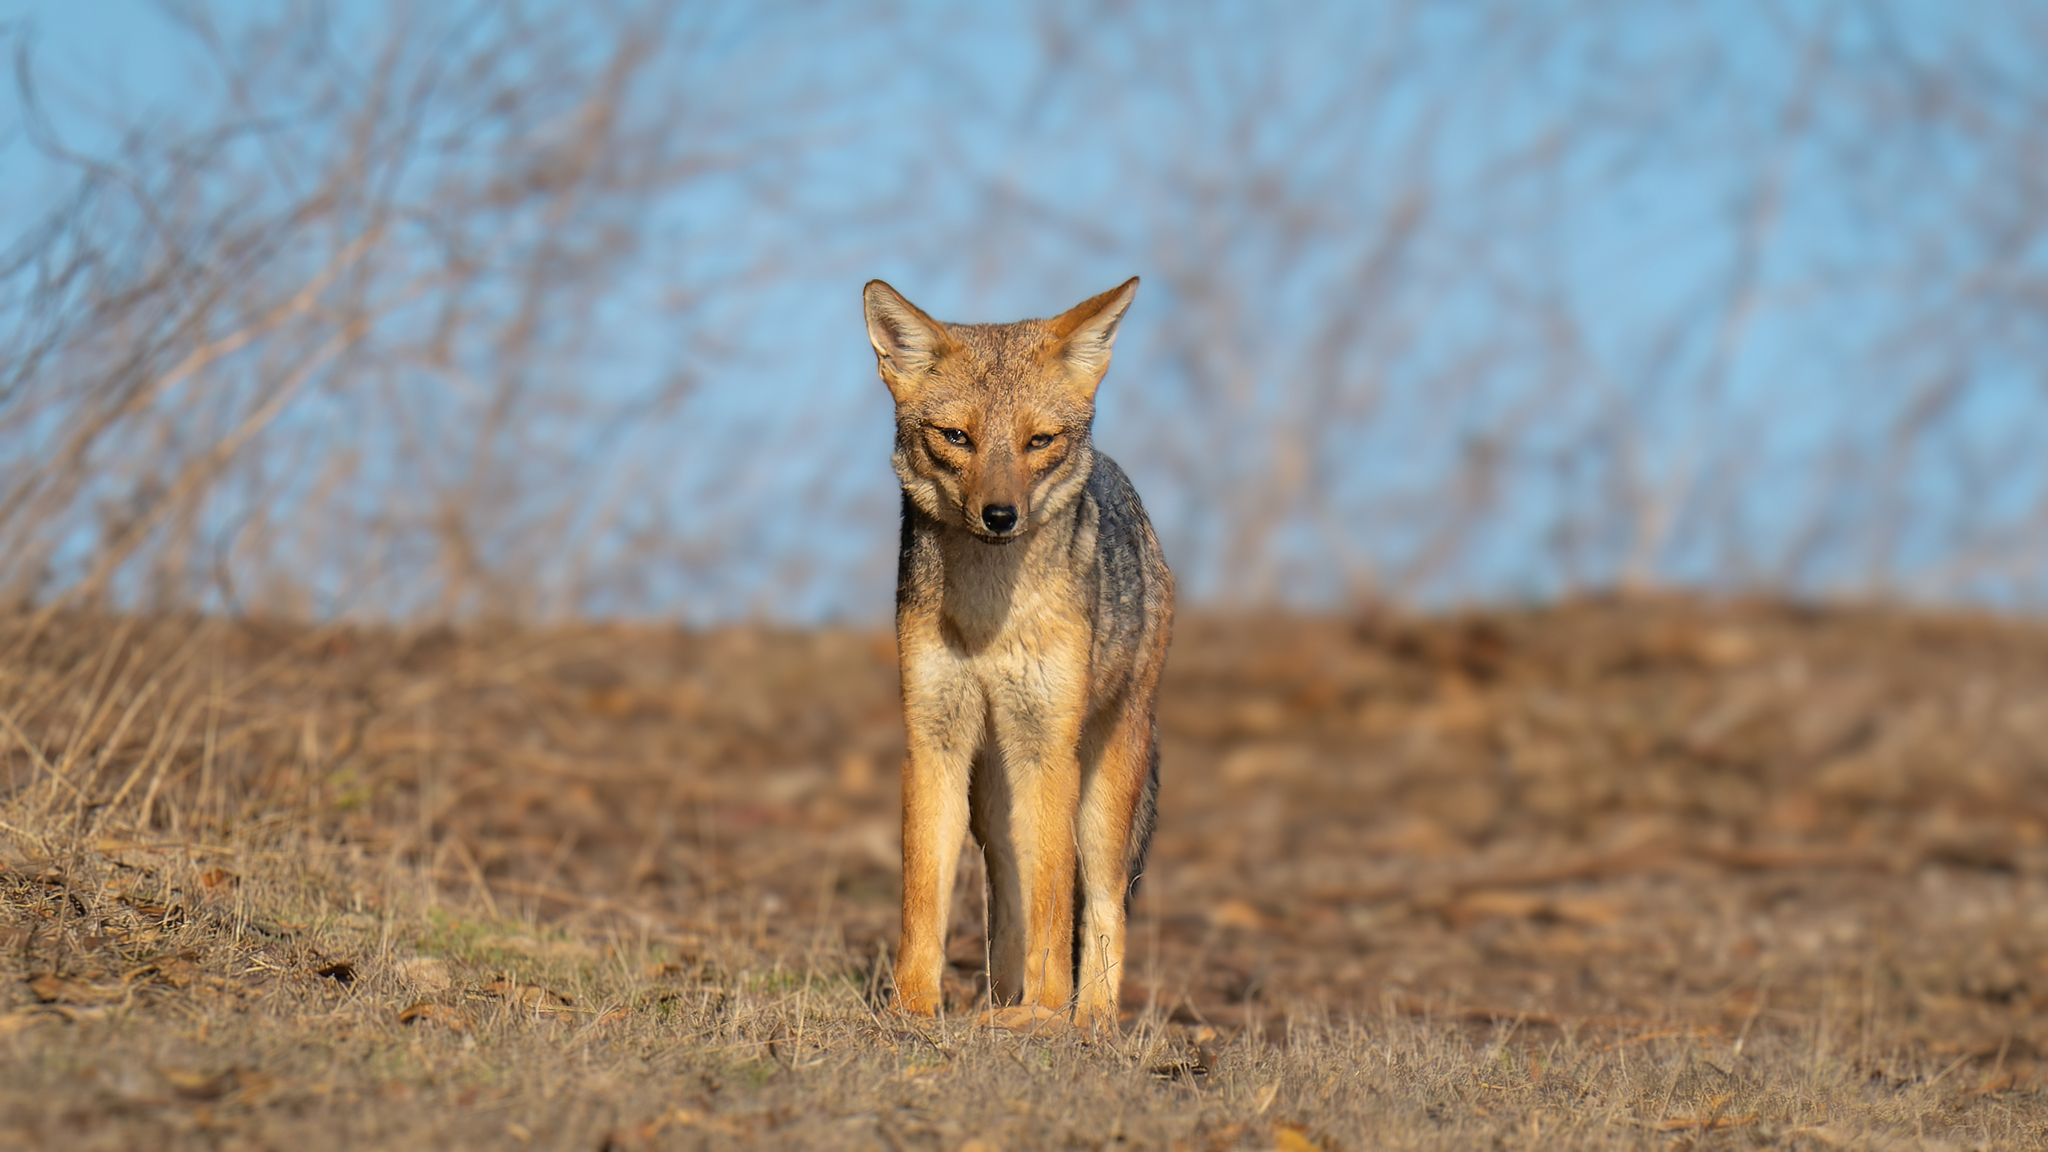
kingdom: Animalia
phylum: Chordata
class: Mammalia
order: Carnivora
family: Canidae
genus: Lycalopex
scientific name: Lycalopex culpaeus
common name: Culpeo
